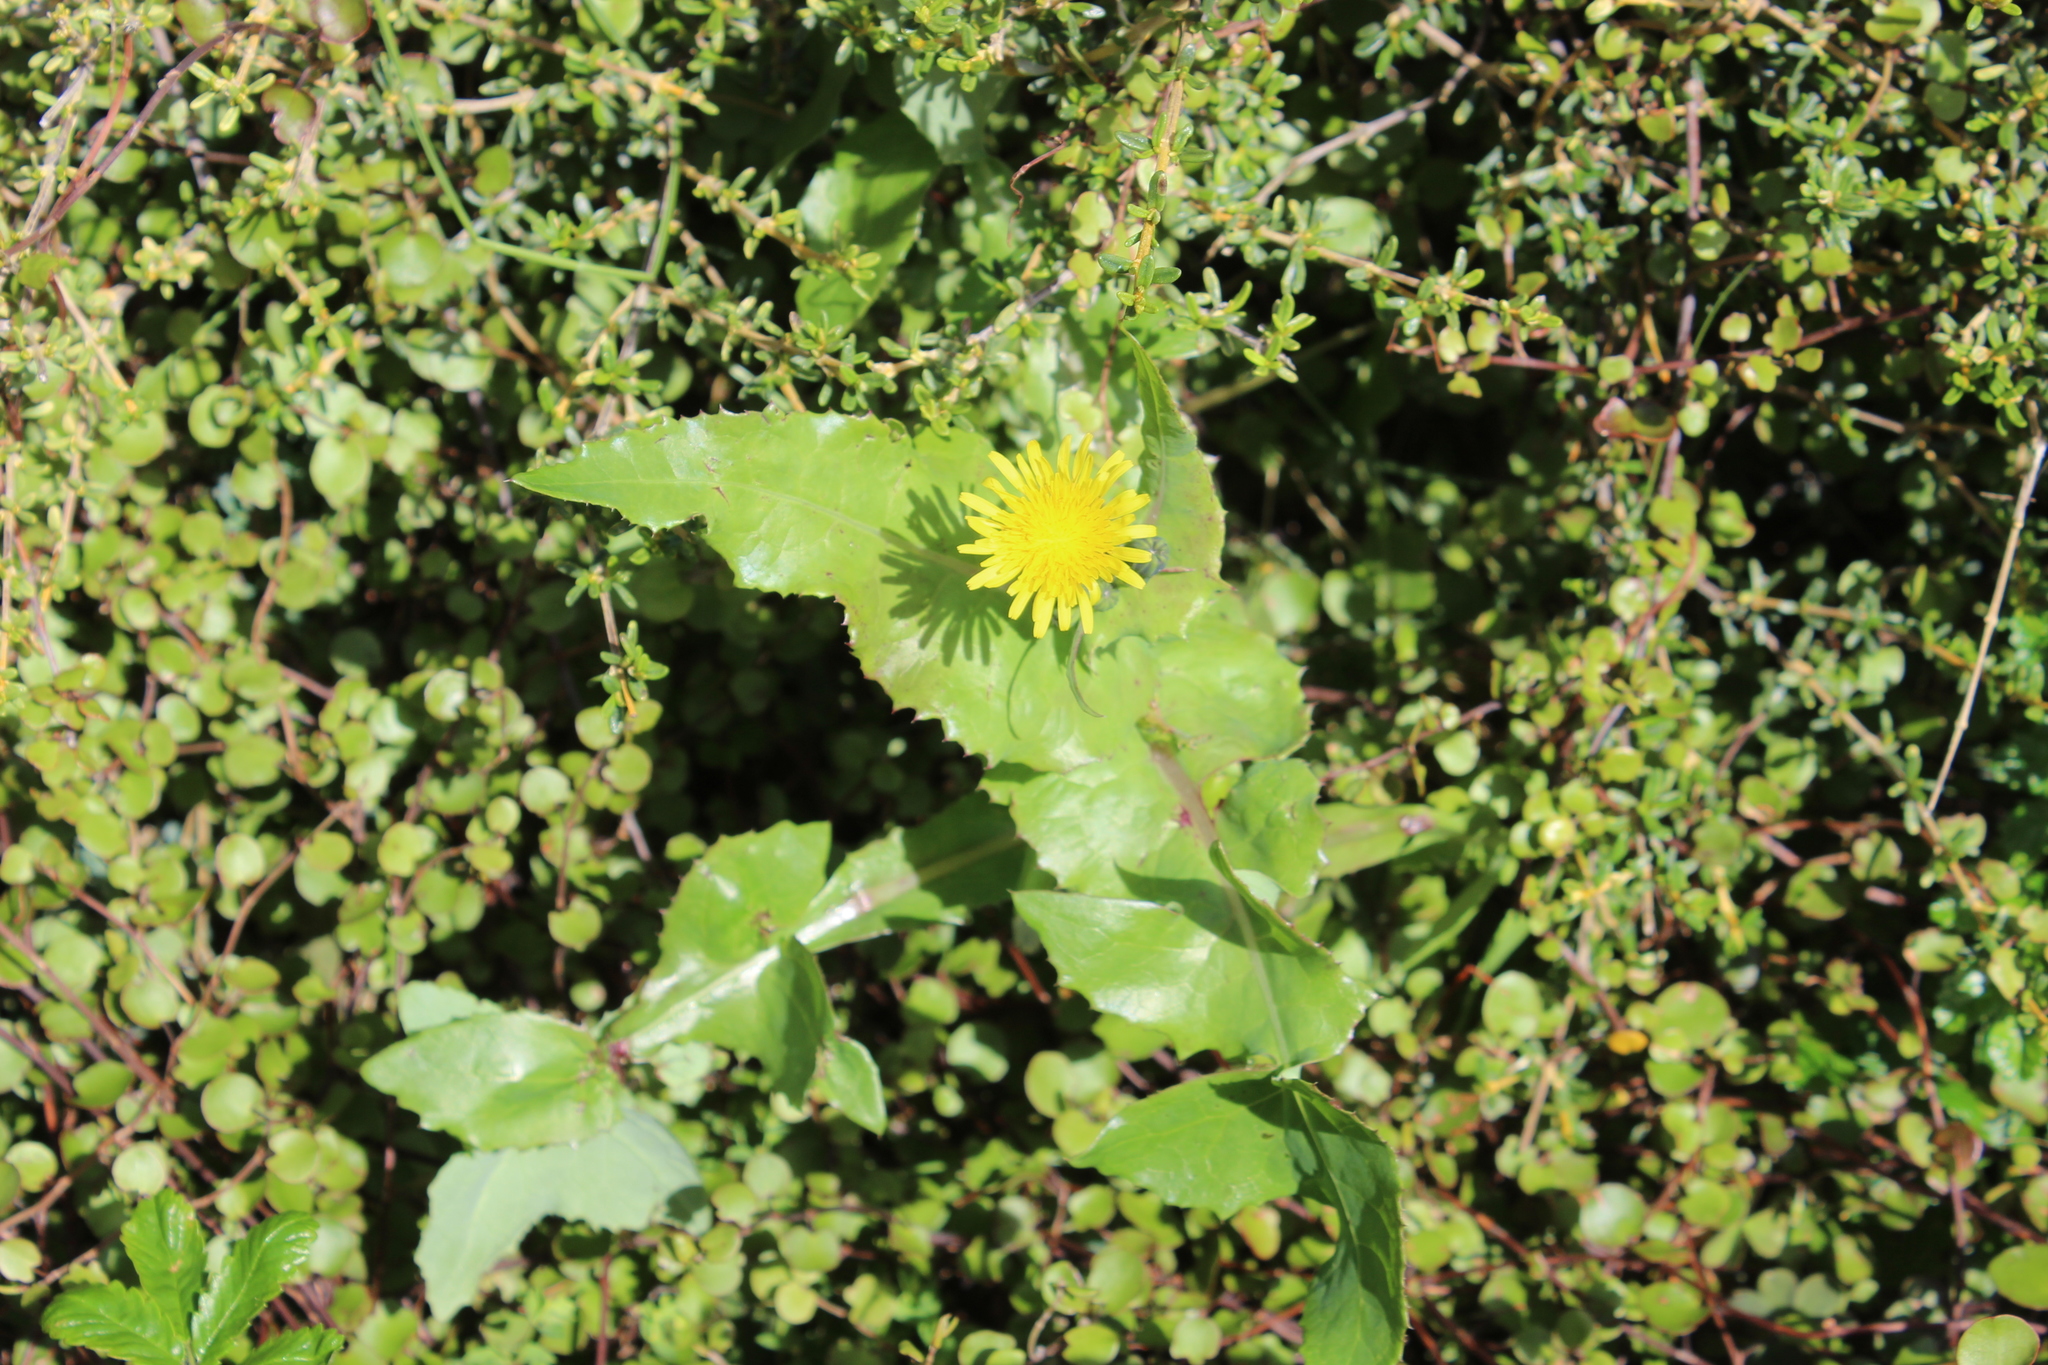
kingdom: Plantae
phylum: Tracheophyta
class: Magnoliopsida
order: Asterales
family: Asteraceae
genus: Sonchus
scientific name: Sonchus oleraceus
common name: Common sowthistle
